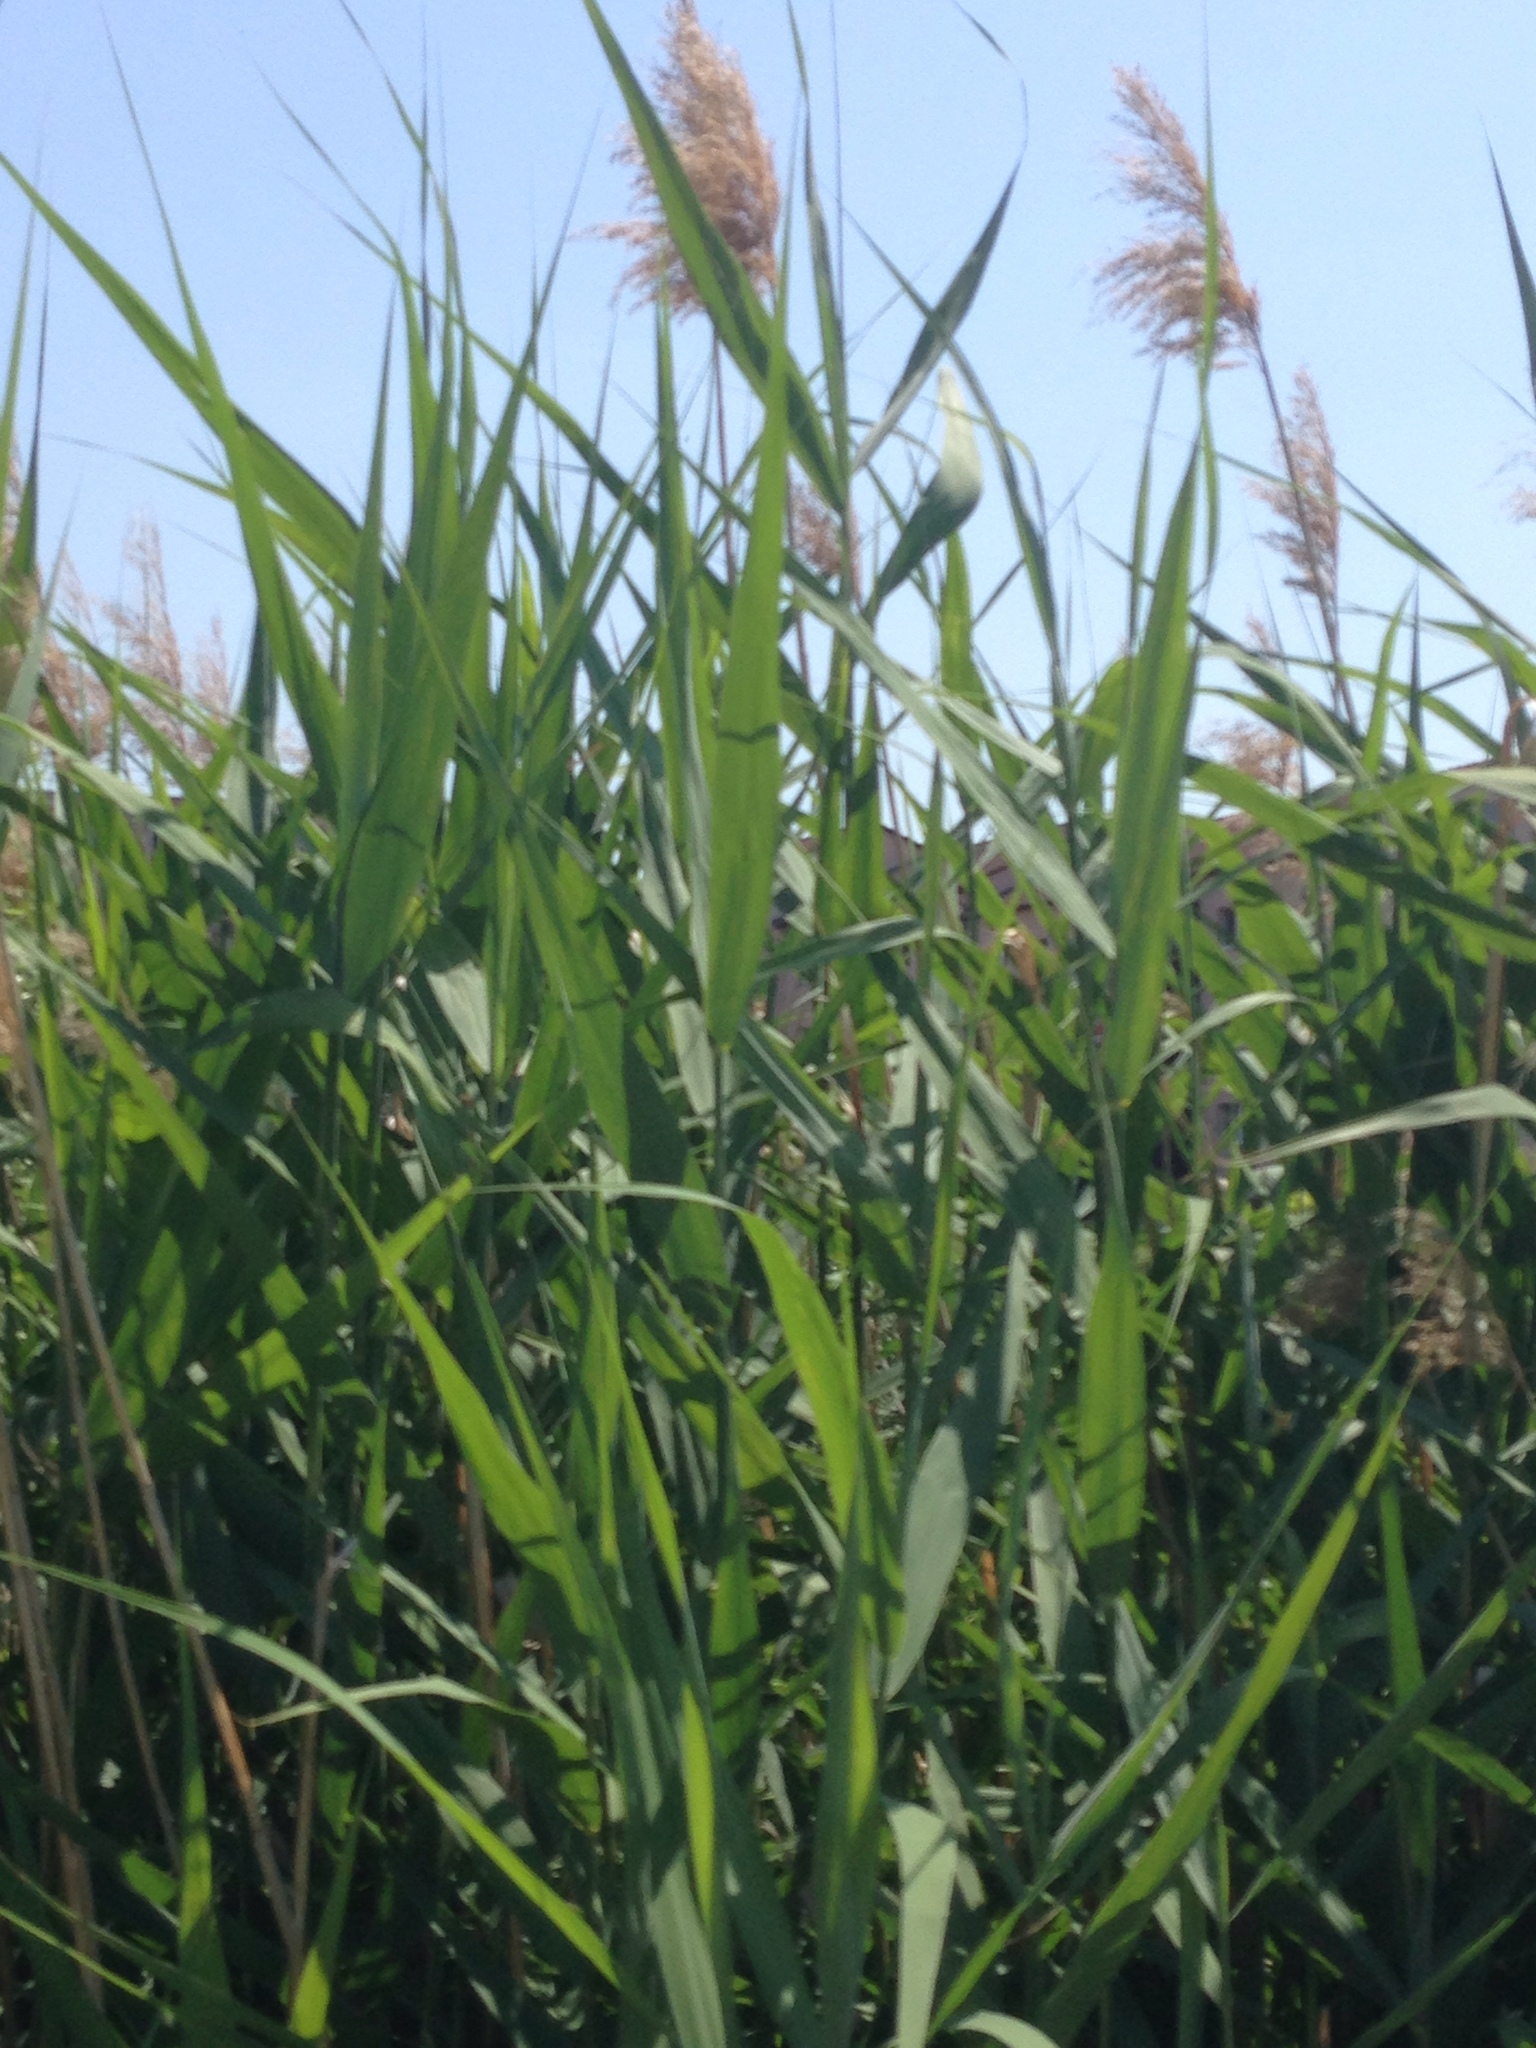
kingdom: Plantae
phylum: Tracheophyta
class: Liliopsida
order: Poales
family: Poaceae
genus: Phragmites
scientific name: Phragmites australis
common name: Common reed
